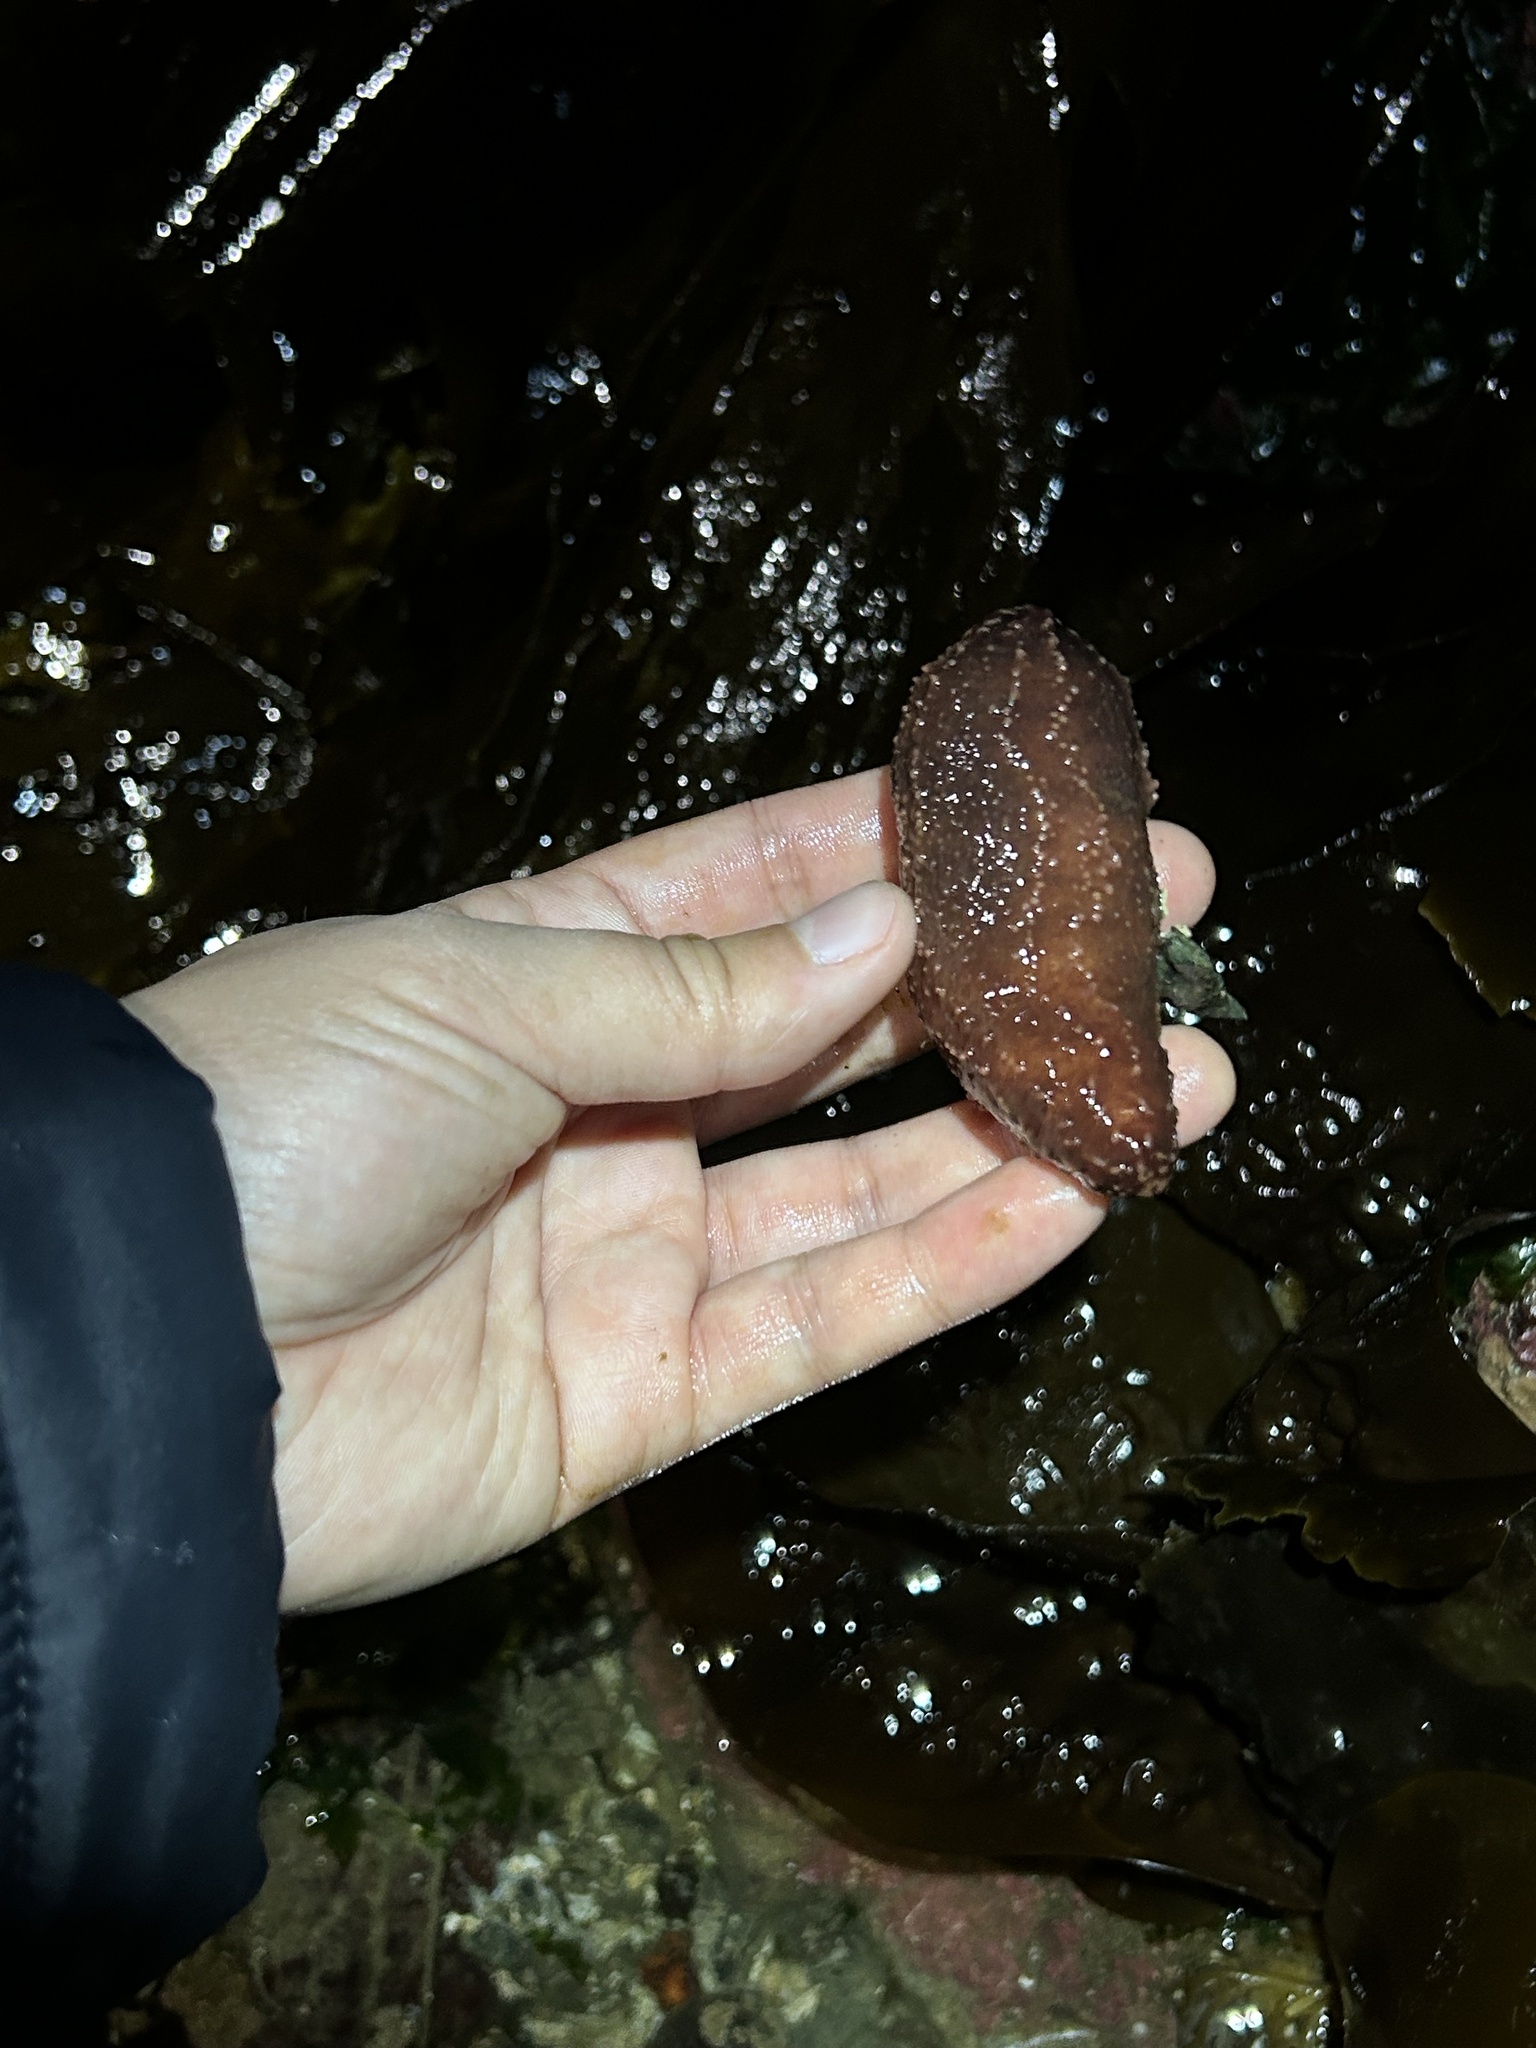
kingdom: Animalia
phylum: Echinodermata
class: Holothuroidea
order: Dendrochirotida
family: Cucumariidae
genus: Cucumaria
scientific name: Cucumaria miniata
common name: Orange sea cucumber
